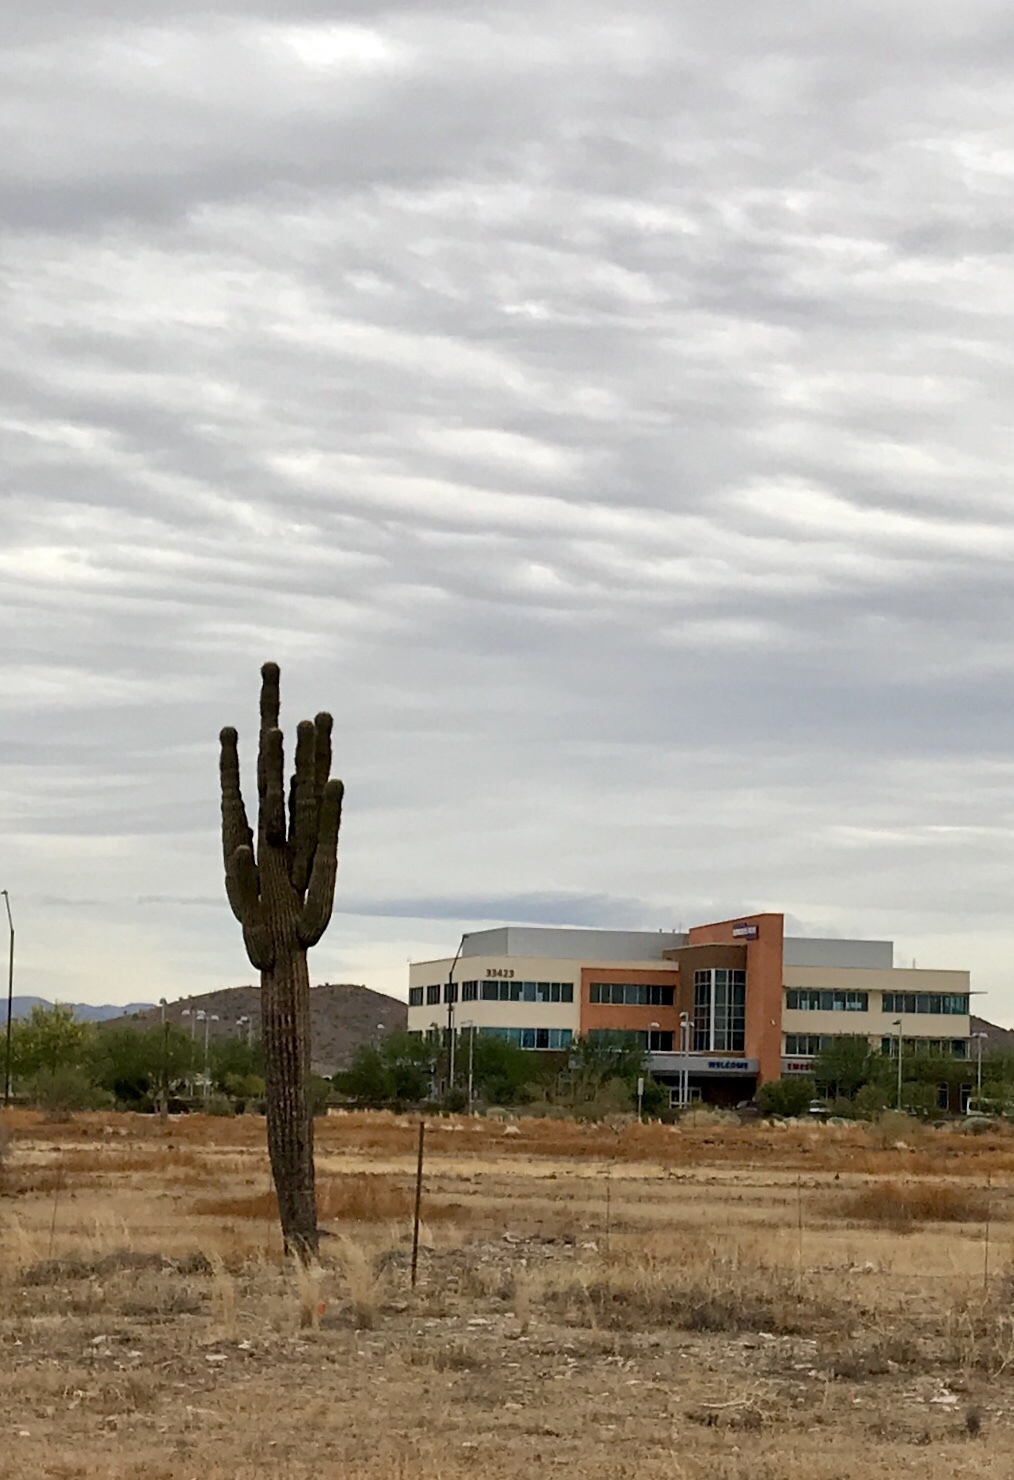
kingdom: Plantae
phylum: Tracheophyta
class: Magnoliopsida
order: Caryophyllales
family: Cactaceae
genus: Carnegiea
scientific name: Carnegiea gigantea
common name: Saguaro
